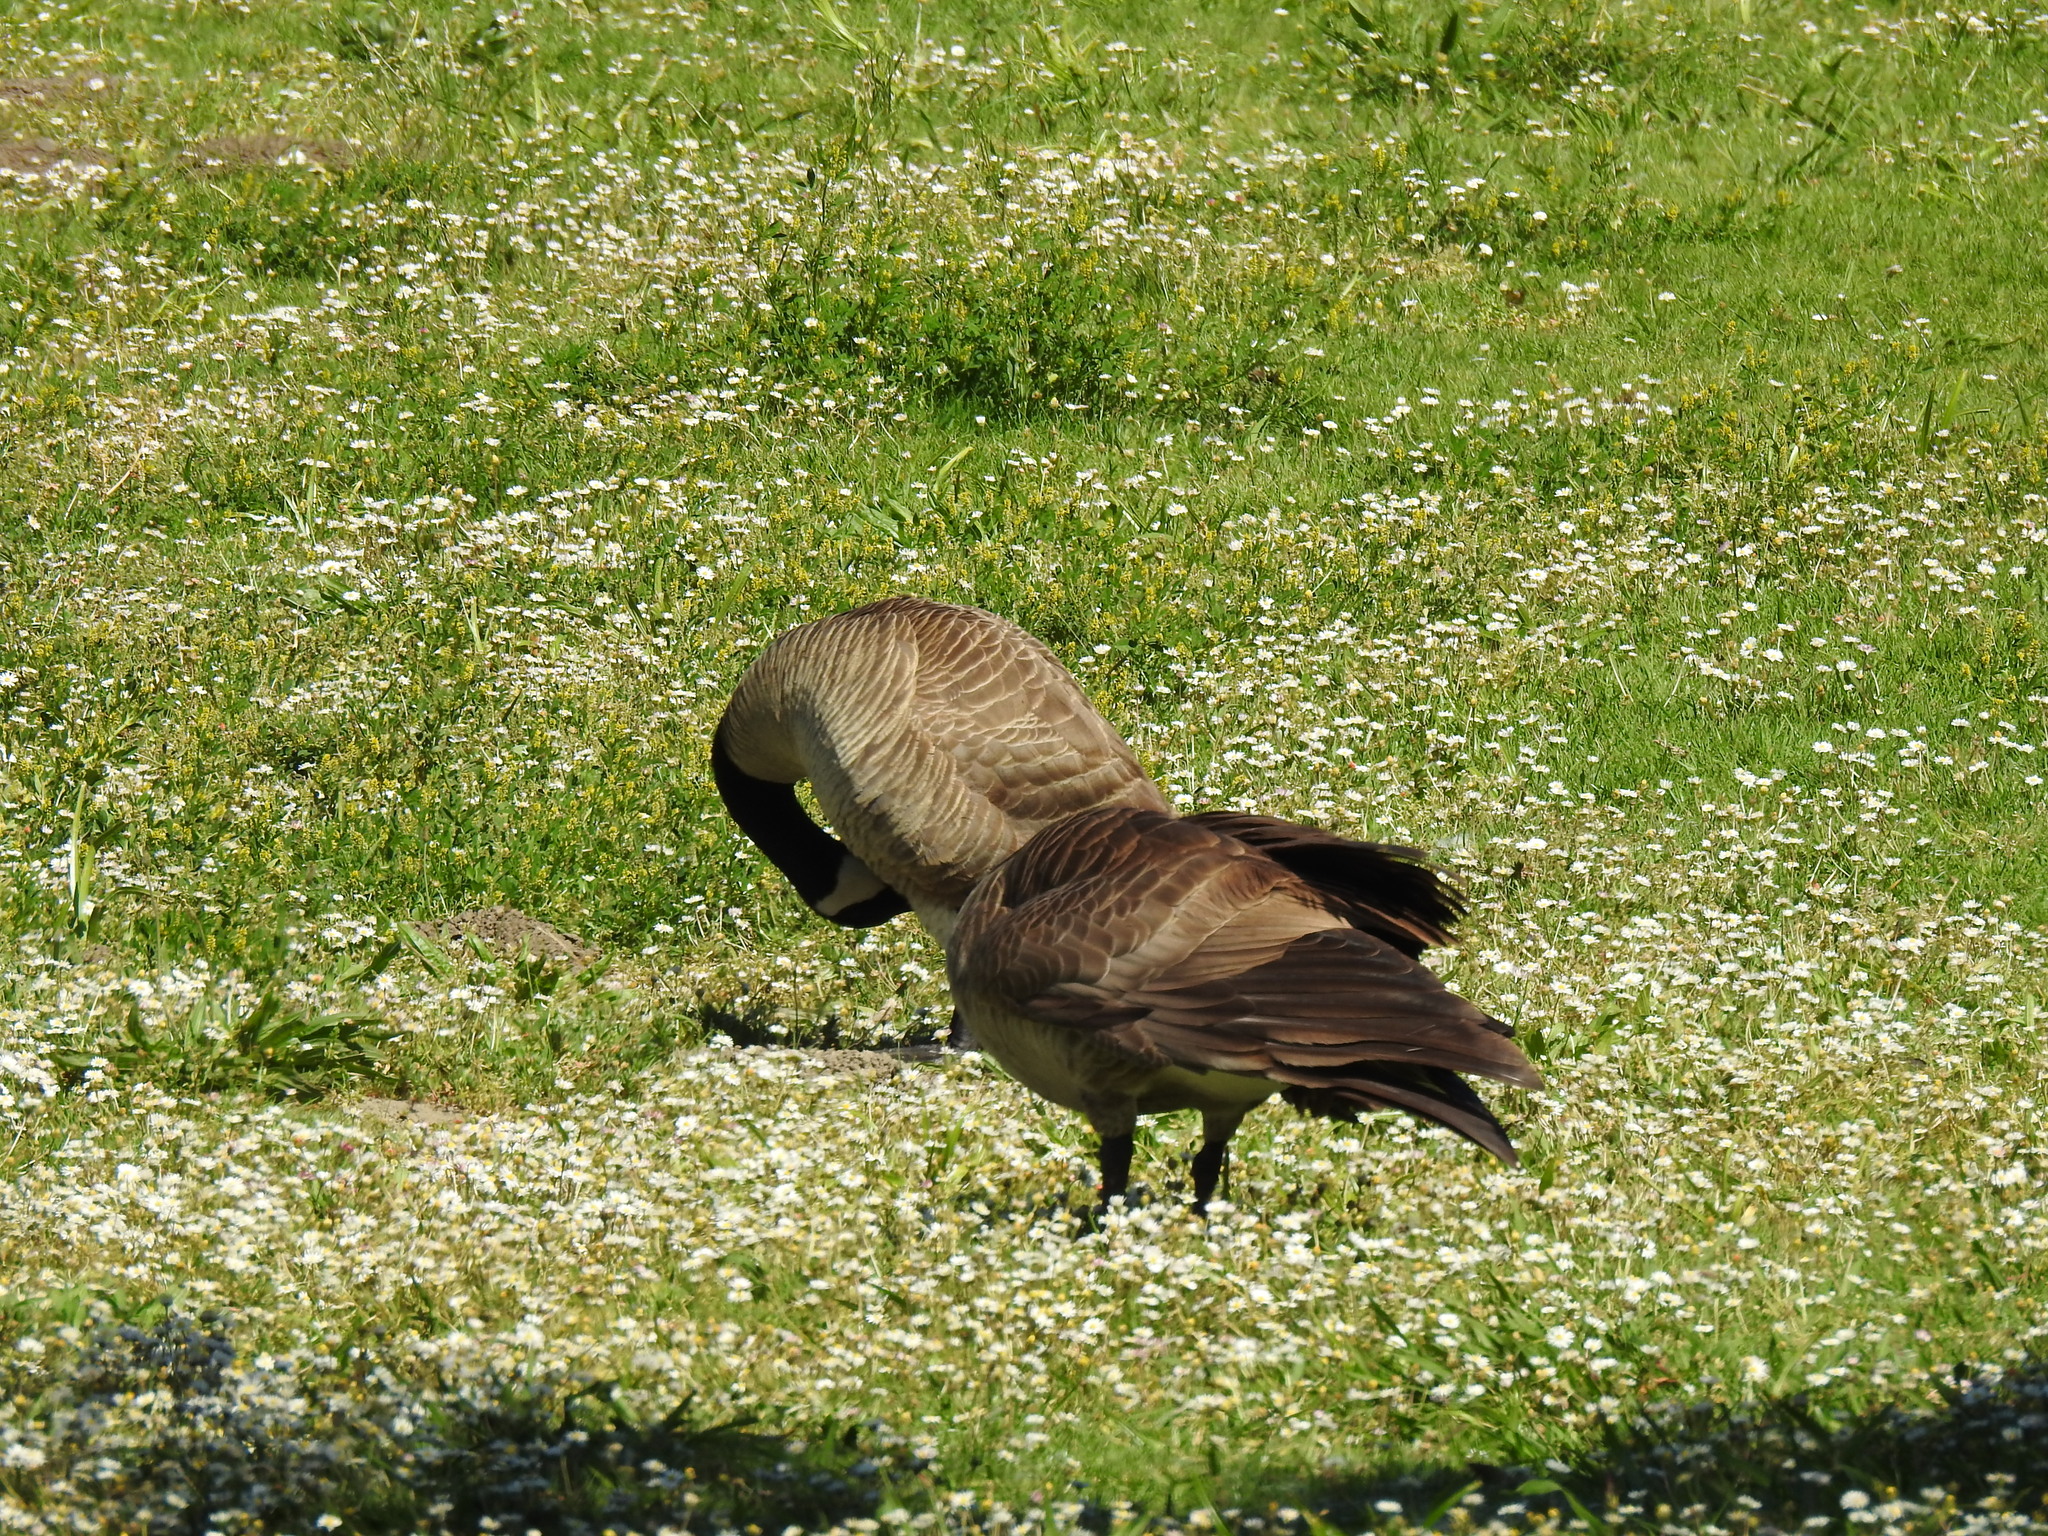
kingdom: Animalia
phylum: Chordata
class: Aves
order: Anseriformes
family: Anatidae
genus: Branta
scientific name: Branta canadensis
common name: Canada goose
